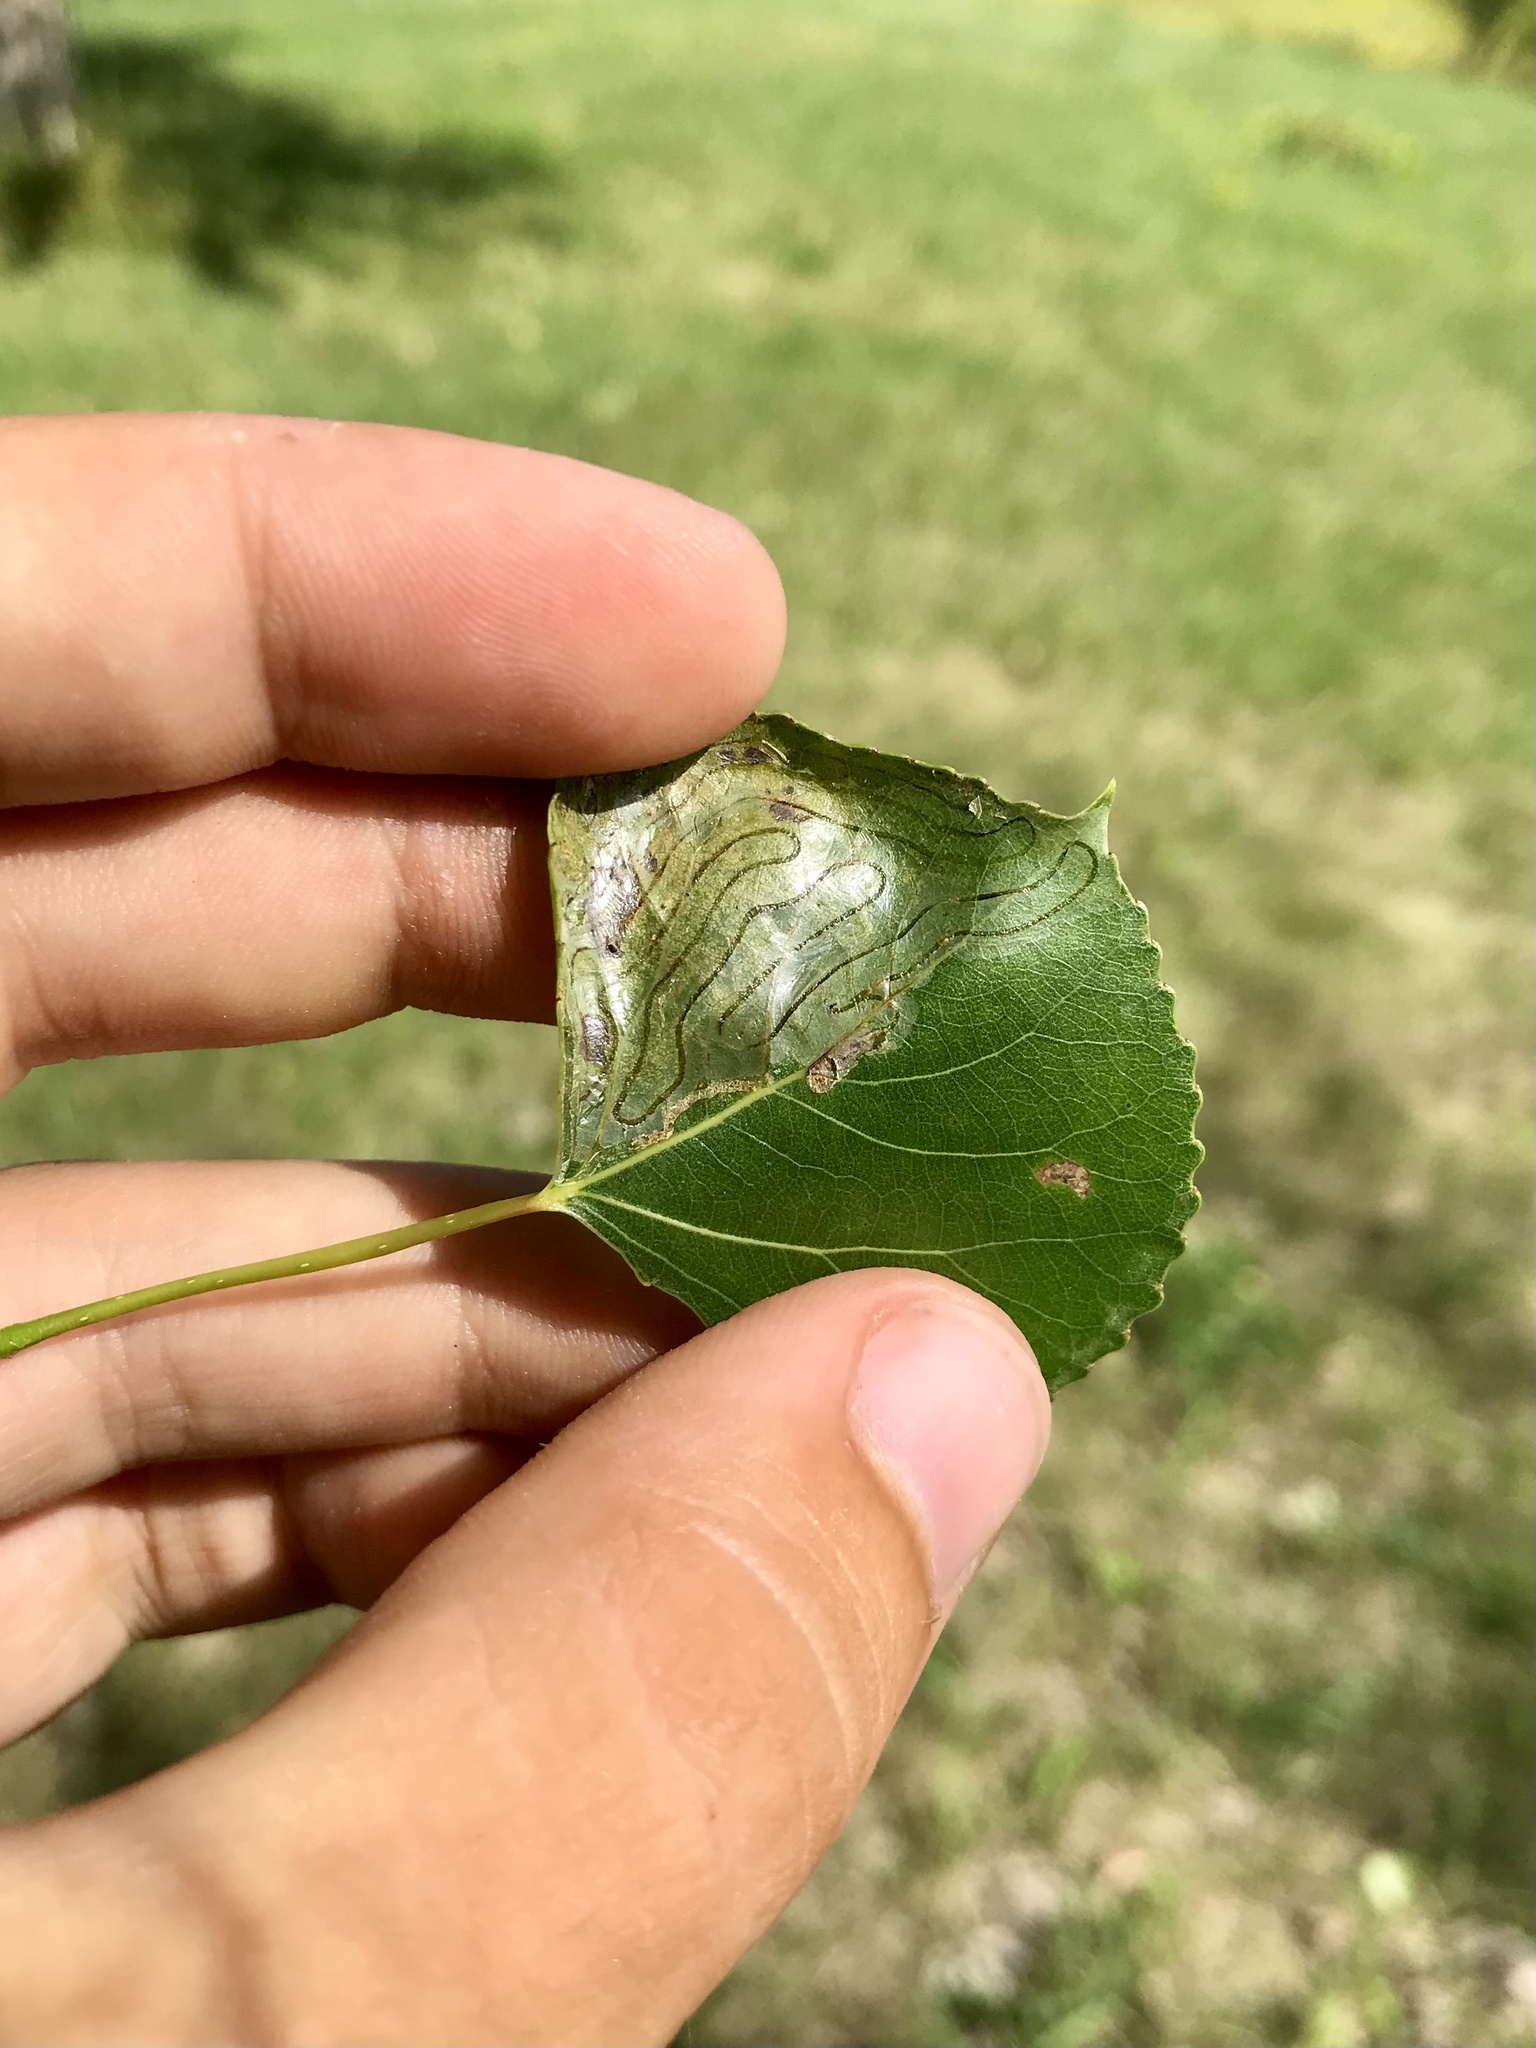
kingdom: Animalia
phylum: Arthropoda
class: Insecta
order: Lepidoptera
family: Gracillariidae
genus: Phyllocnistis
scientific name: Phyllocnistis populiella
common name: Aspen serpentine leafminer moth
